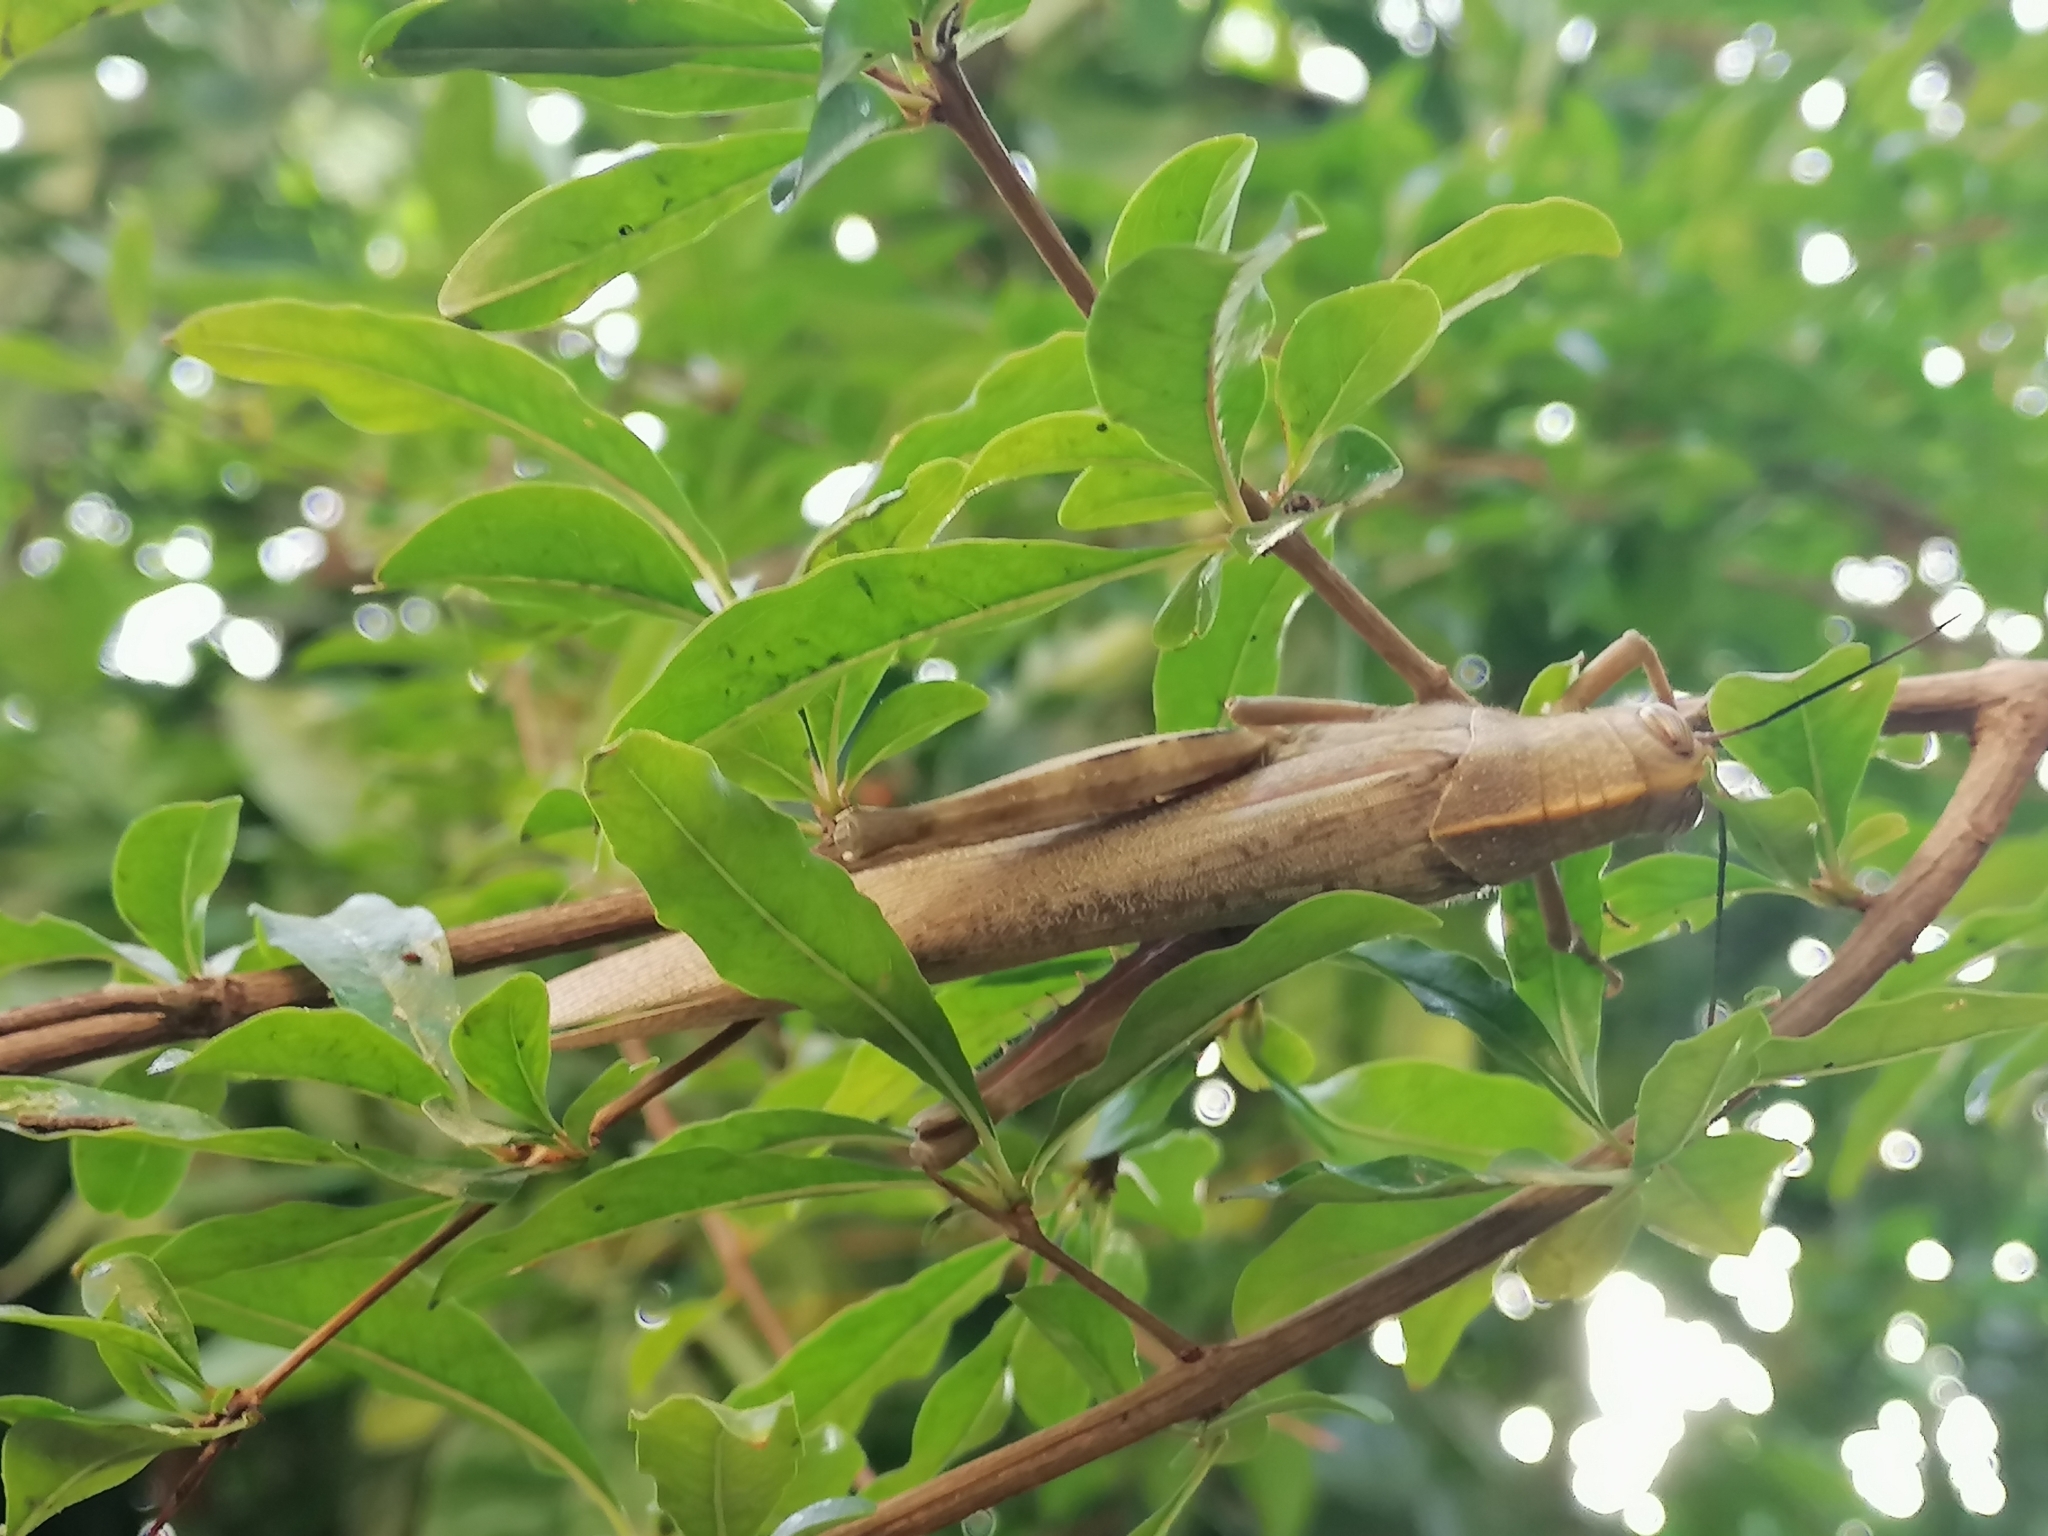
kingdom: Animalia
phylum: Arthropoda
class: Insecta
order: Orthoptera
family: Acrididae
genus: Anacridium
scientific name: Anacridium aegyptium
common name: Egyptian grasshopper
